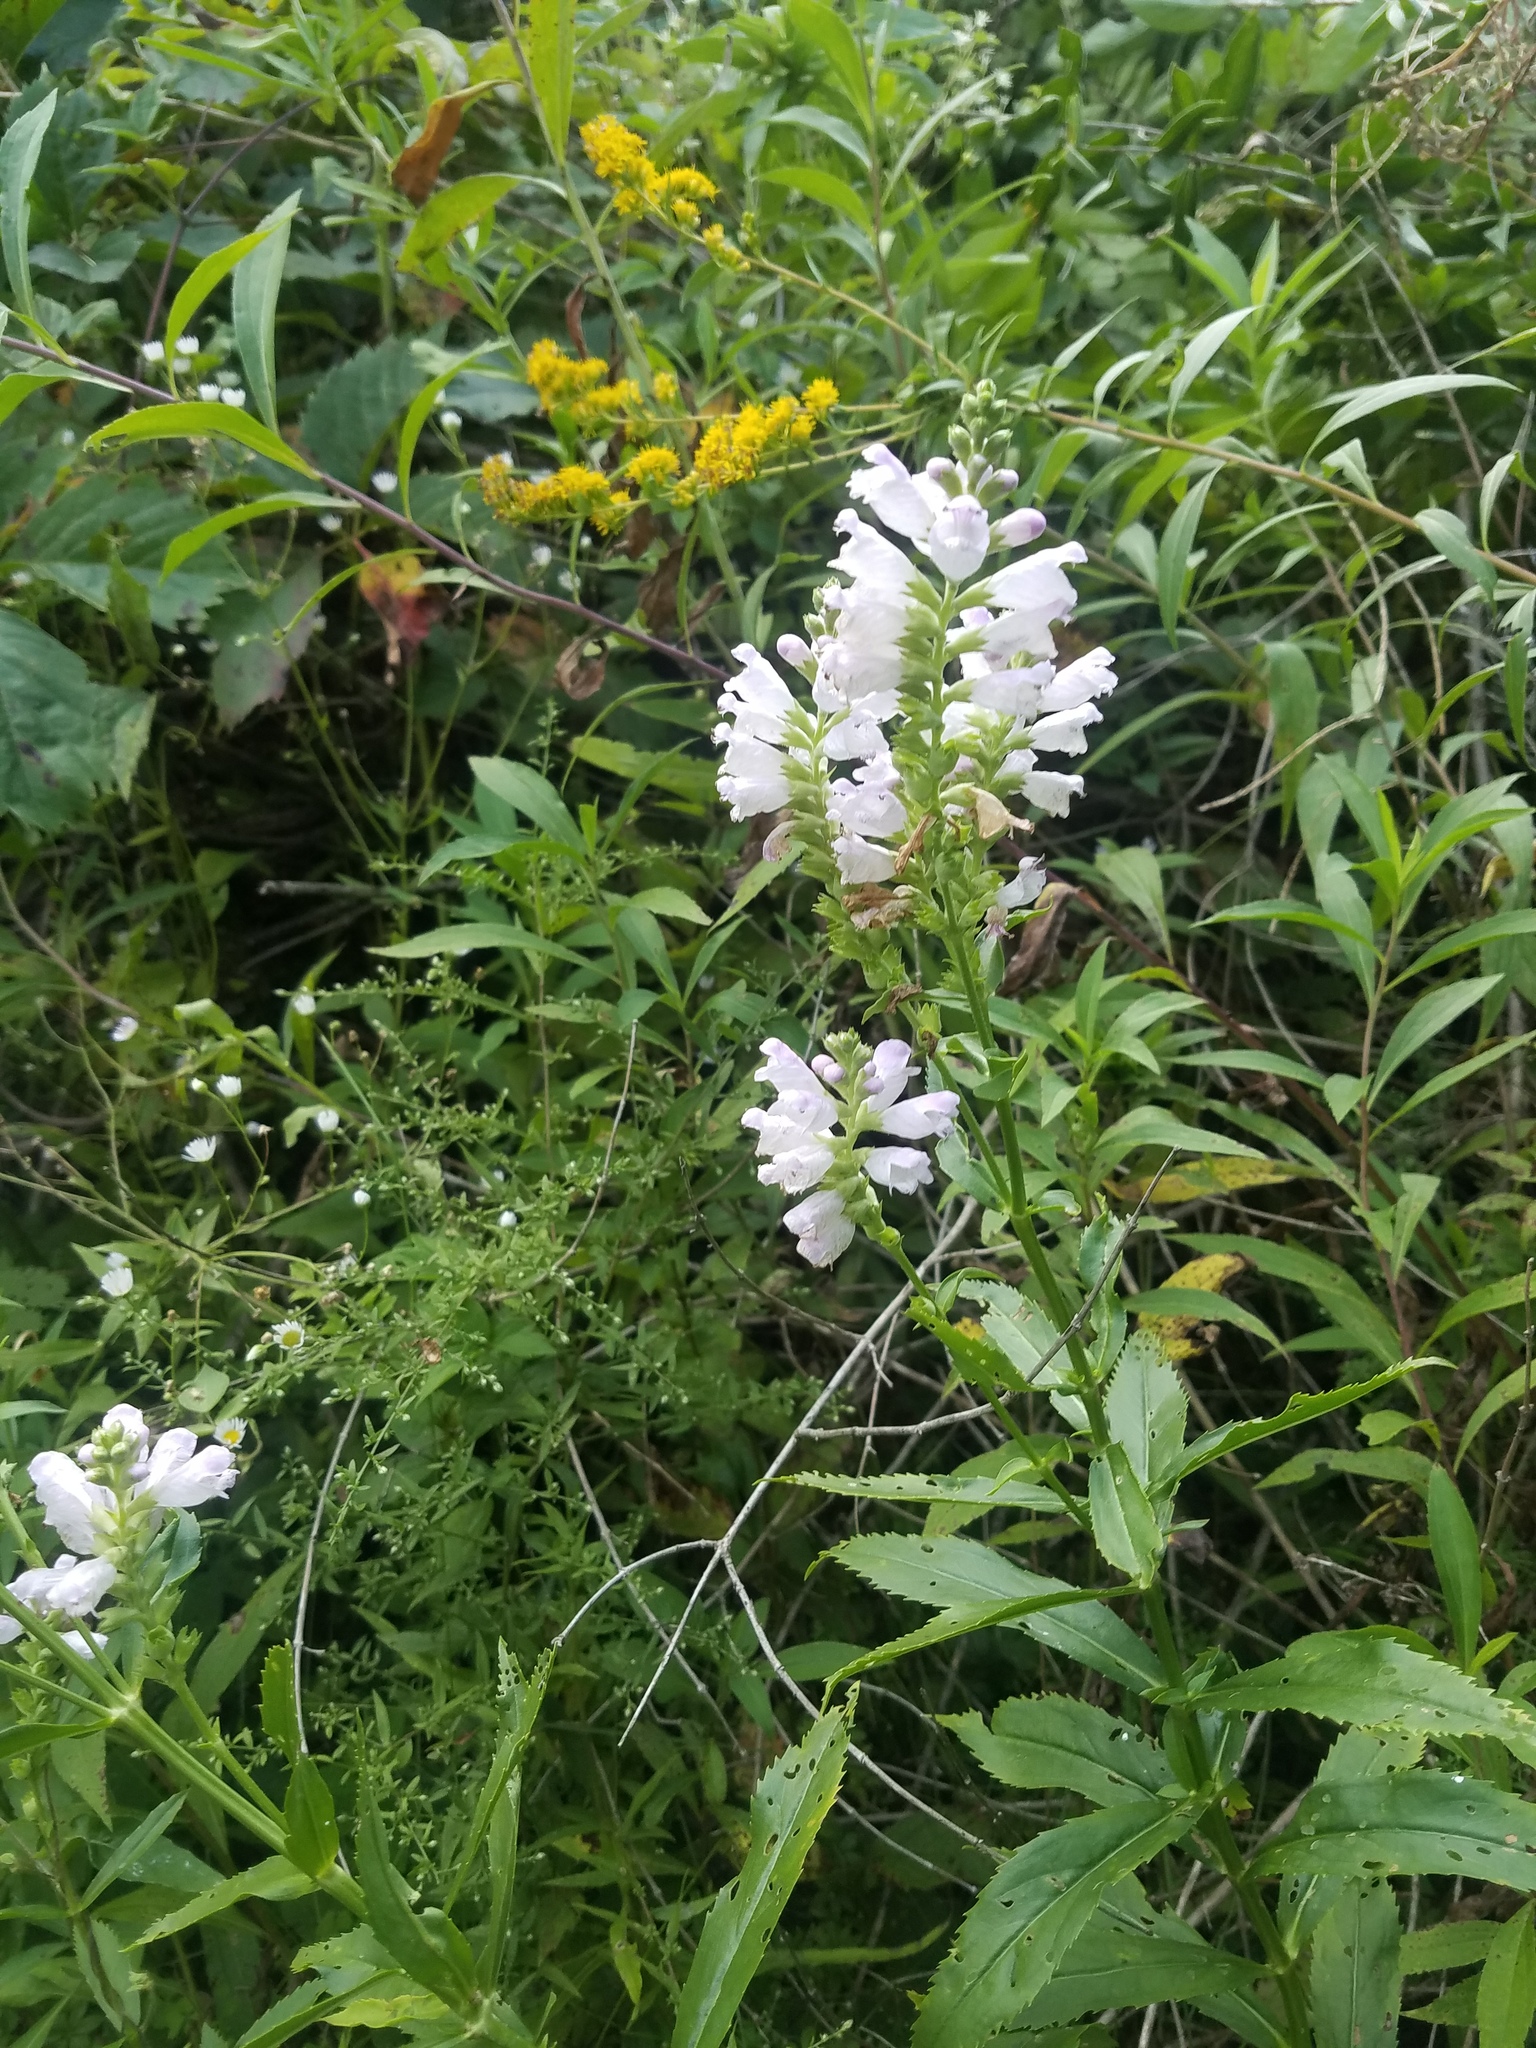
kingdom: Plantae
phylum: Tracheophyta
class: Magnoliopsida
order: Lamiales
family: Lamiaceae
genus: Physostegia
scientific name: Physostegia virginiana
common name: Obedient-plant
